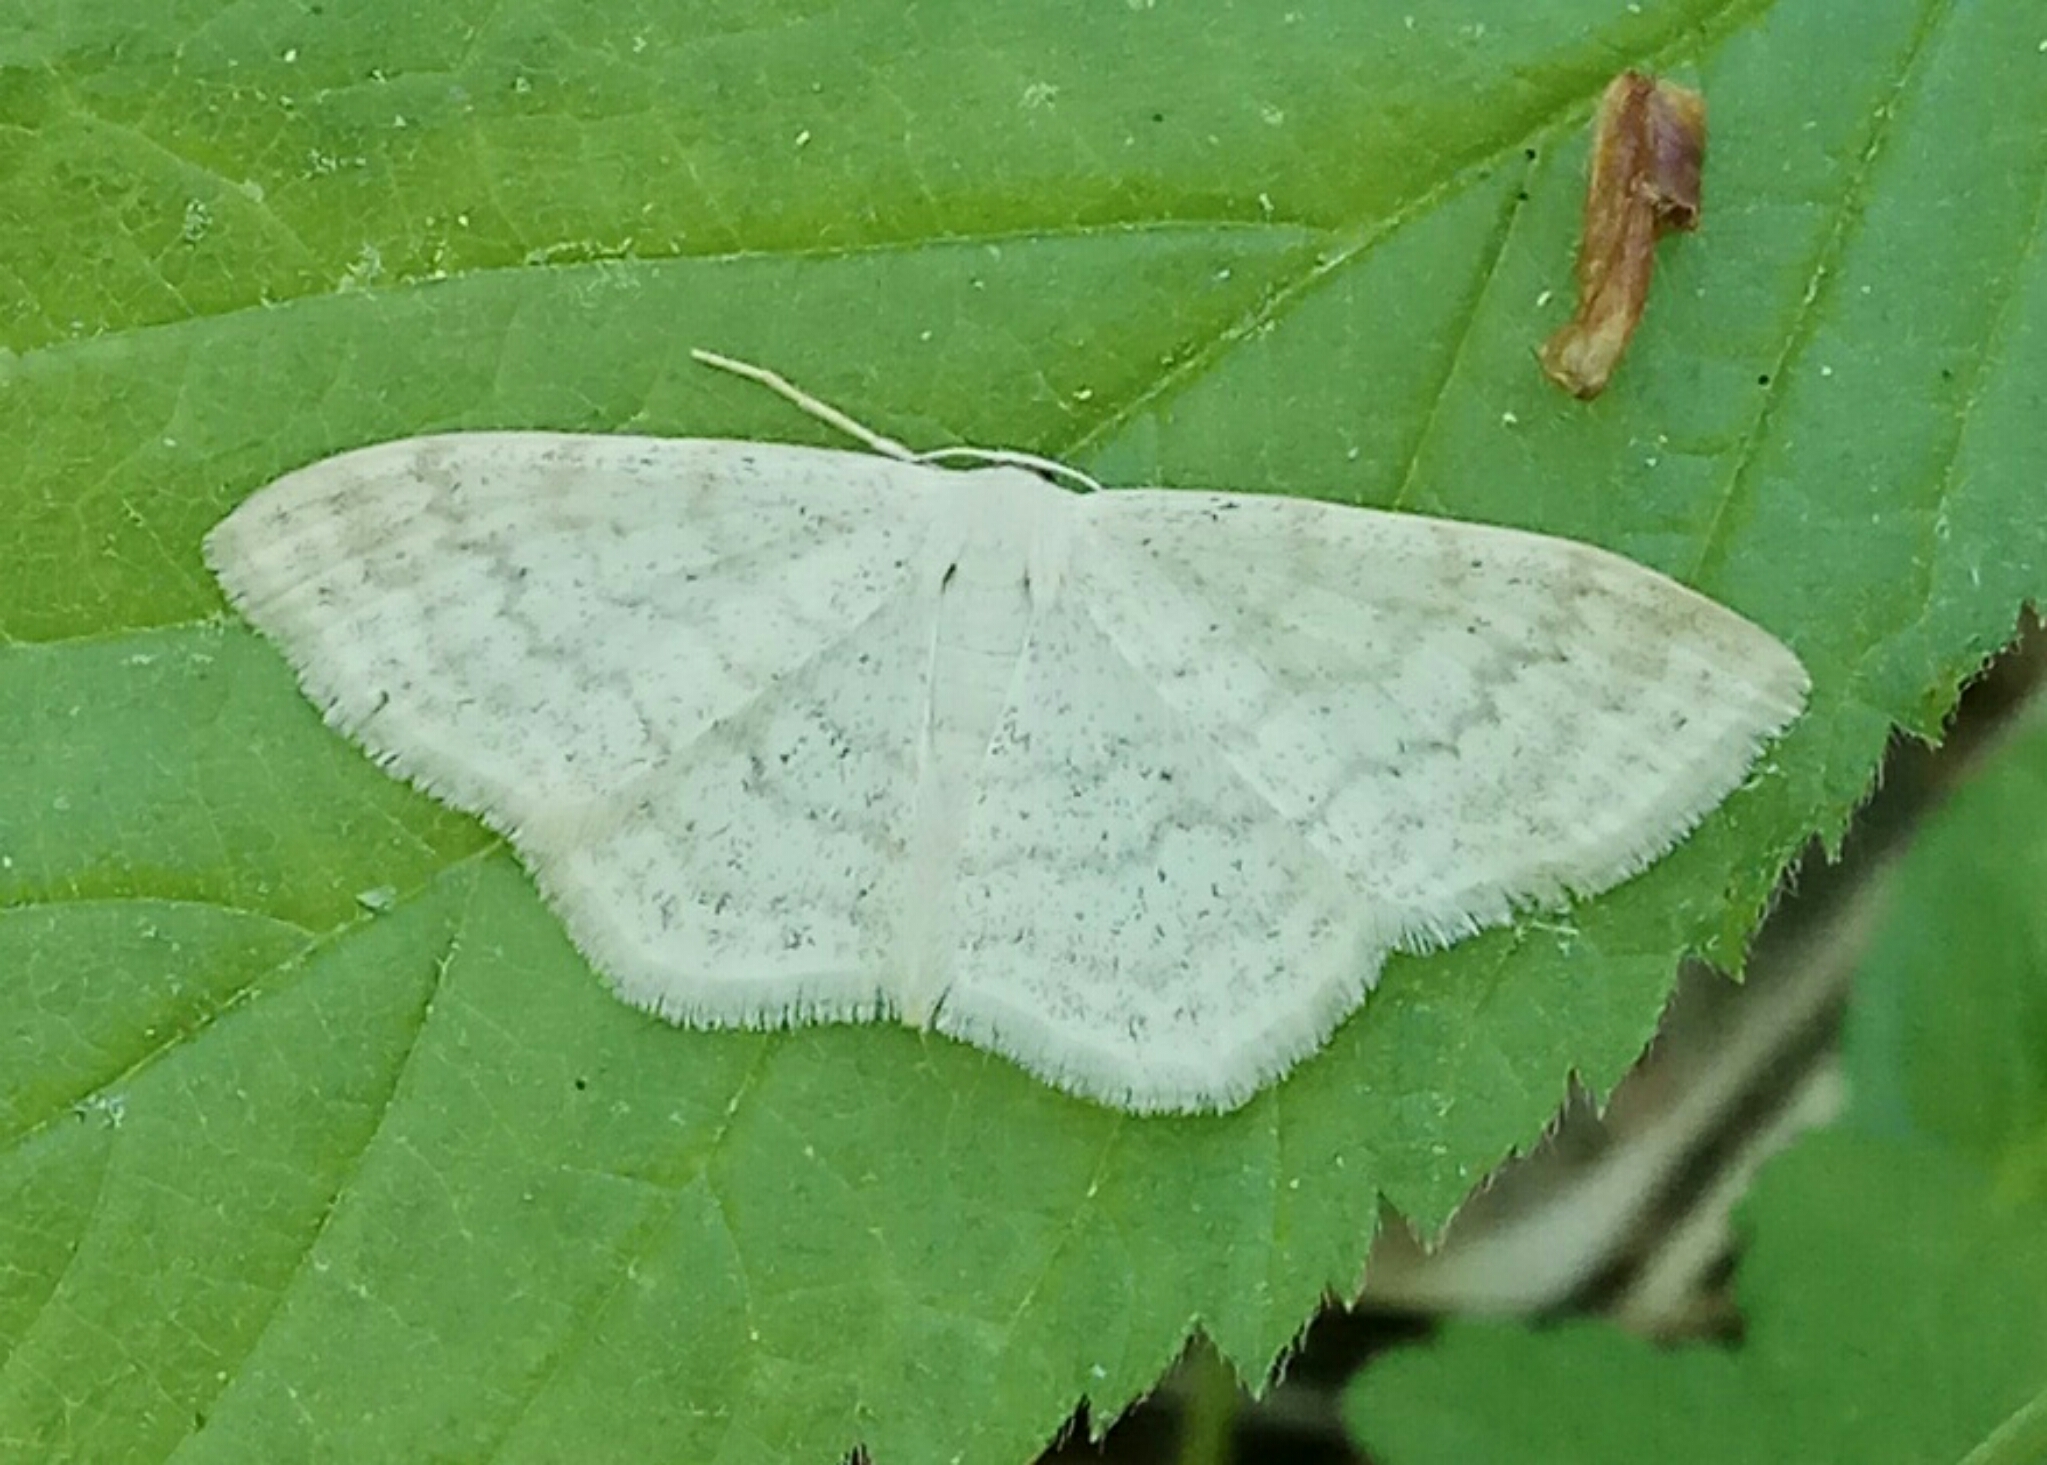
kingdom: Animalia
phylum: Arthropoda
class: Insecta
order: Lepidoptera
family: Geometridae
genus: Scopula
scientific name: Scopula floslactata
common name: Cream wave
